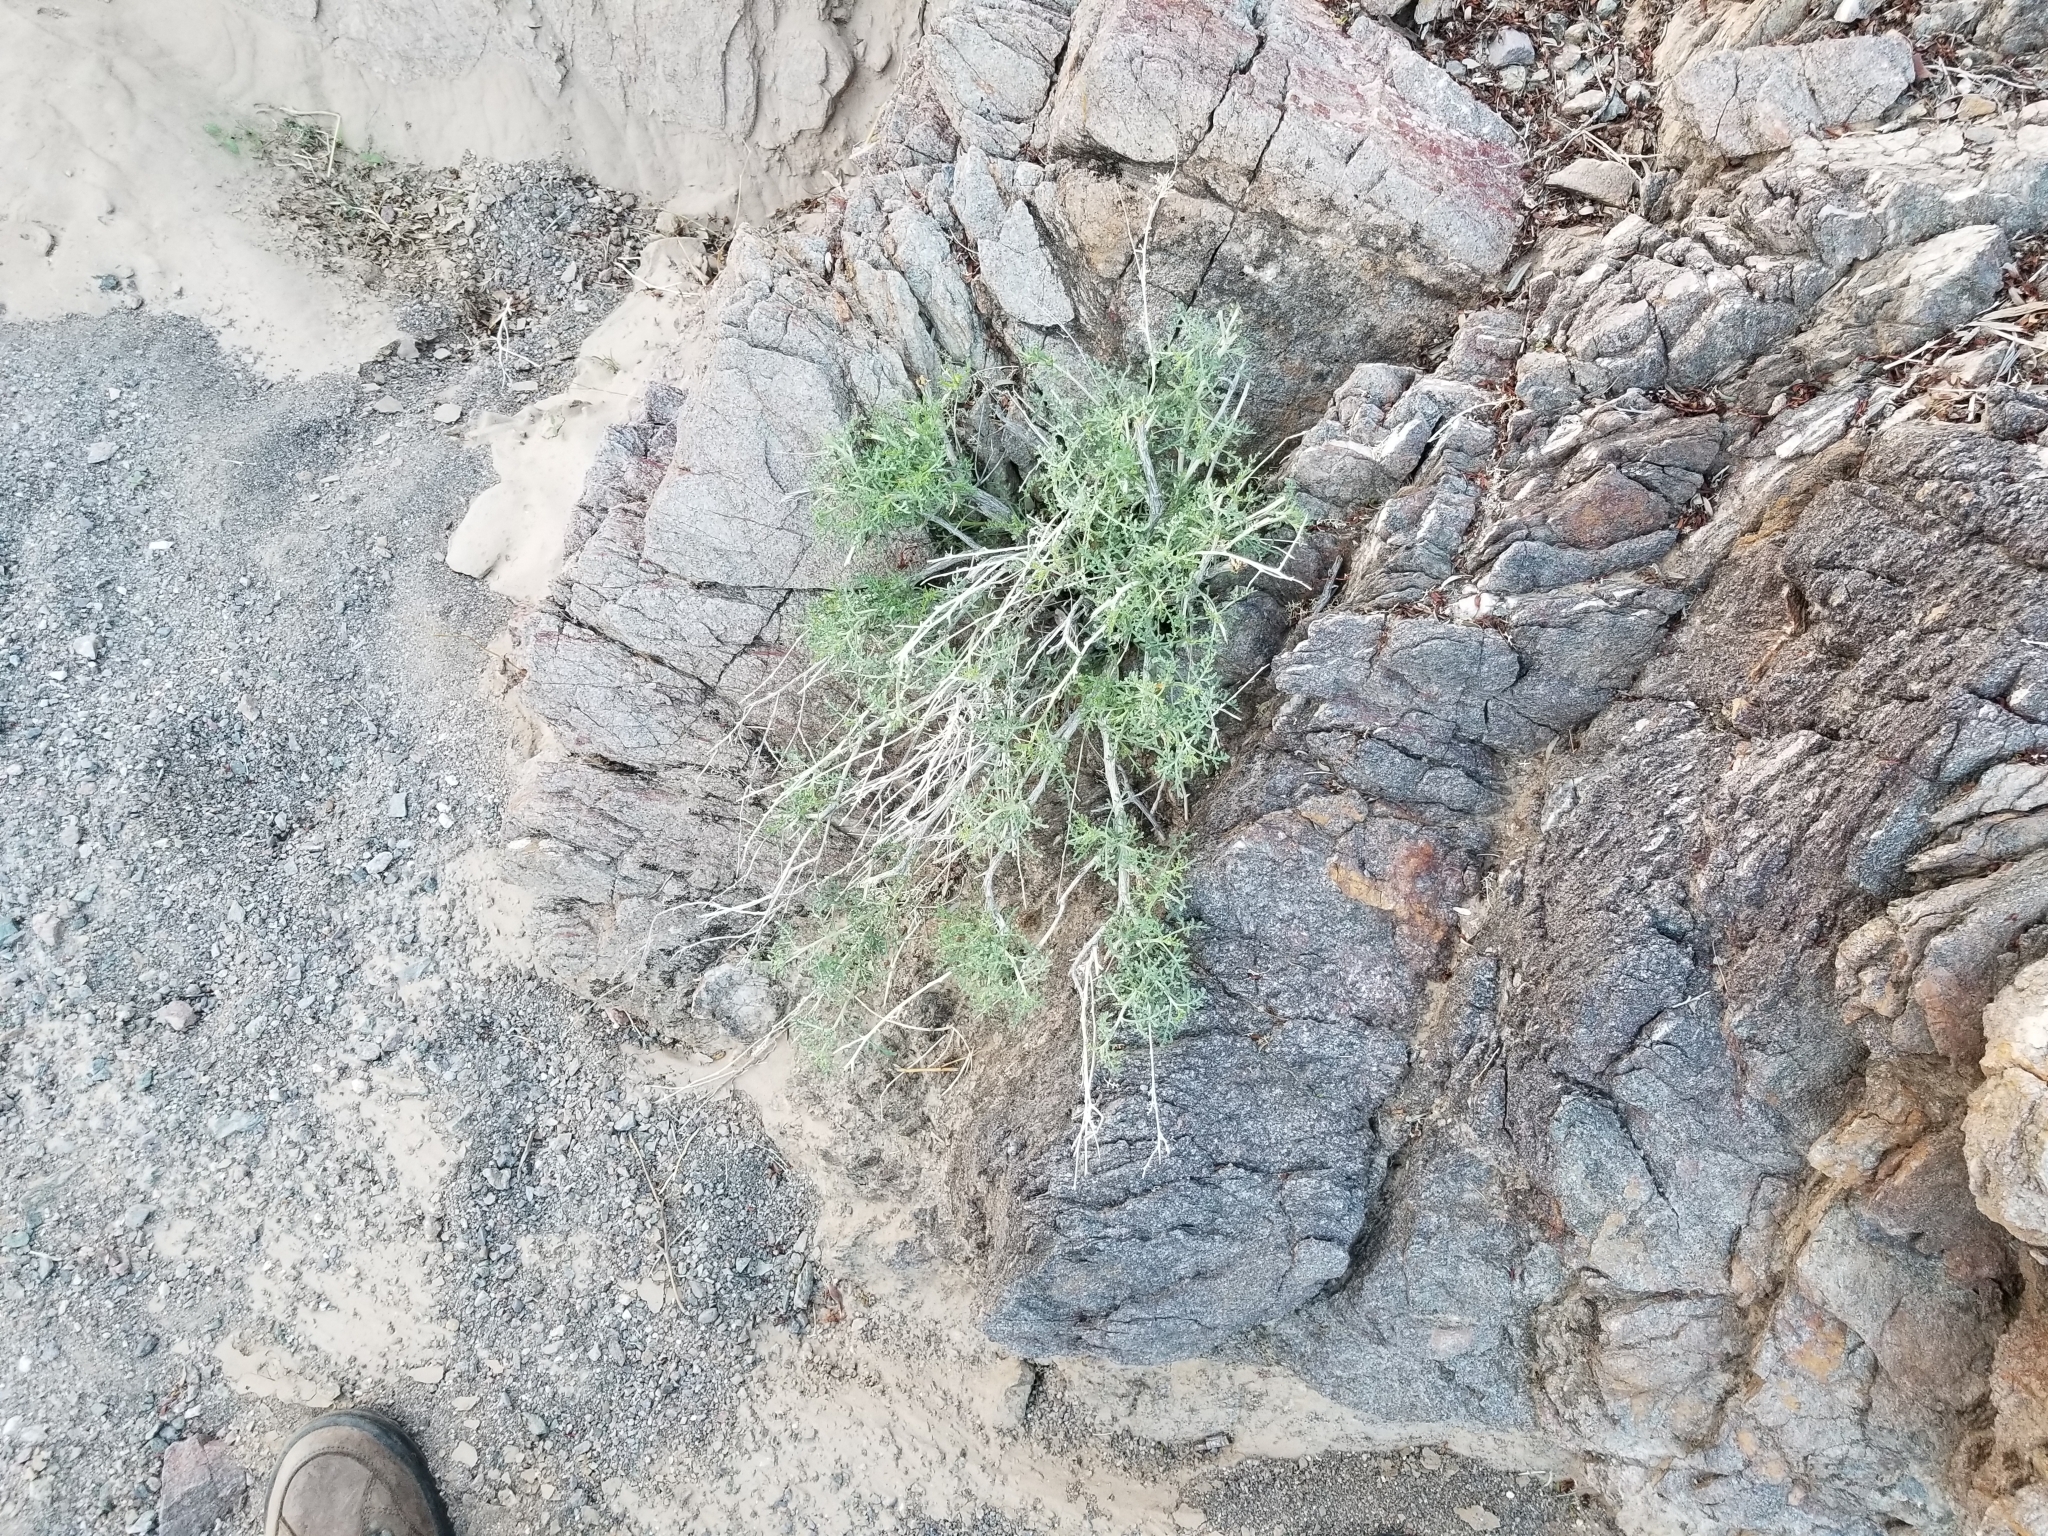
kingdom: Plantae
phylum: Tracheophyta
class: Magnoliopsida
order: Asterales
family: Asteraceae
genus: Ambrosia
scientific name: Ambrosia dumosa
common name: Bur-sage
